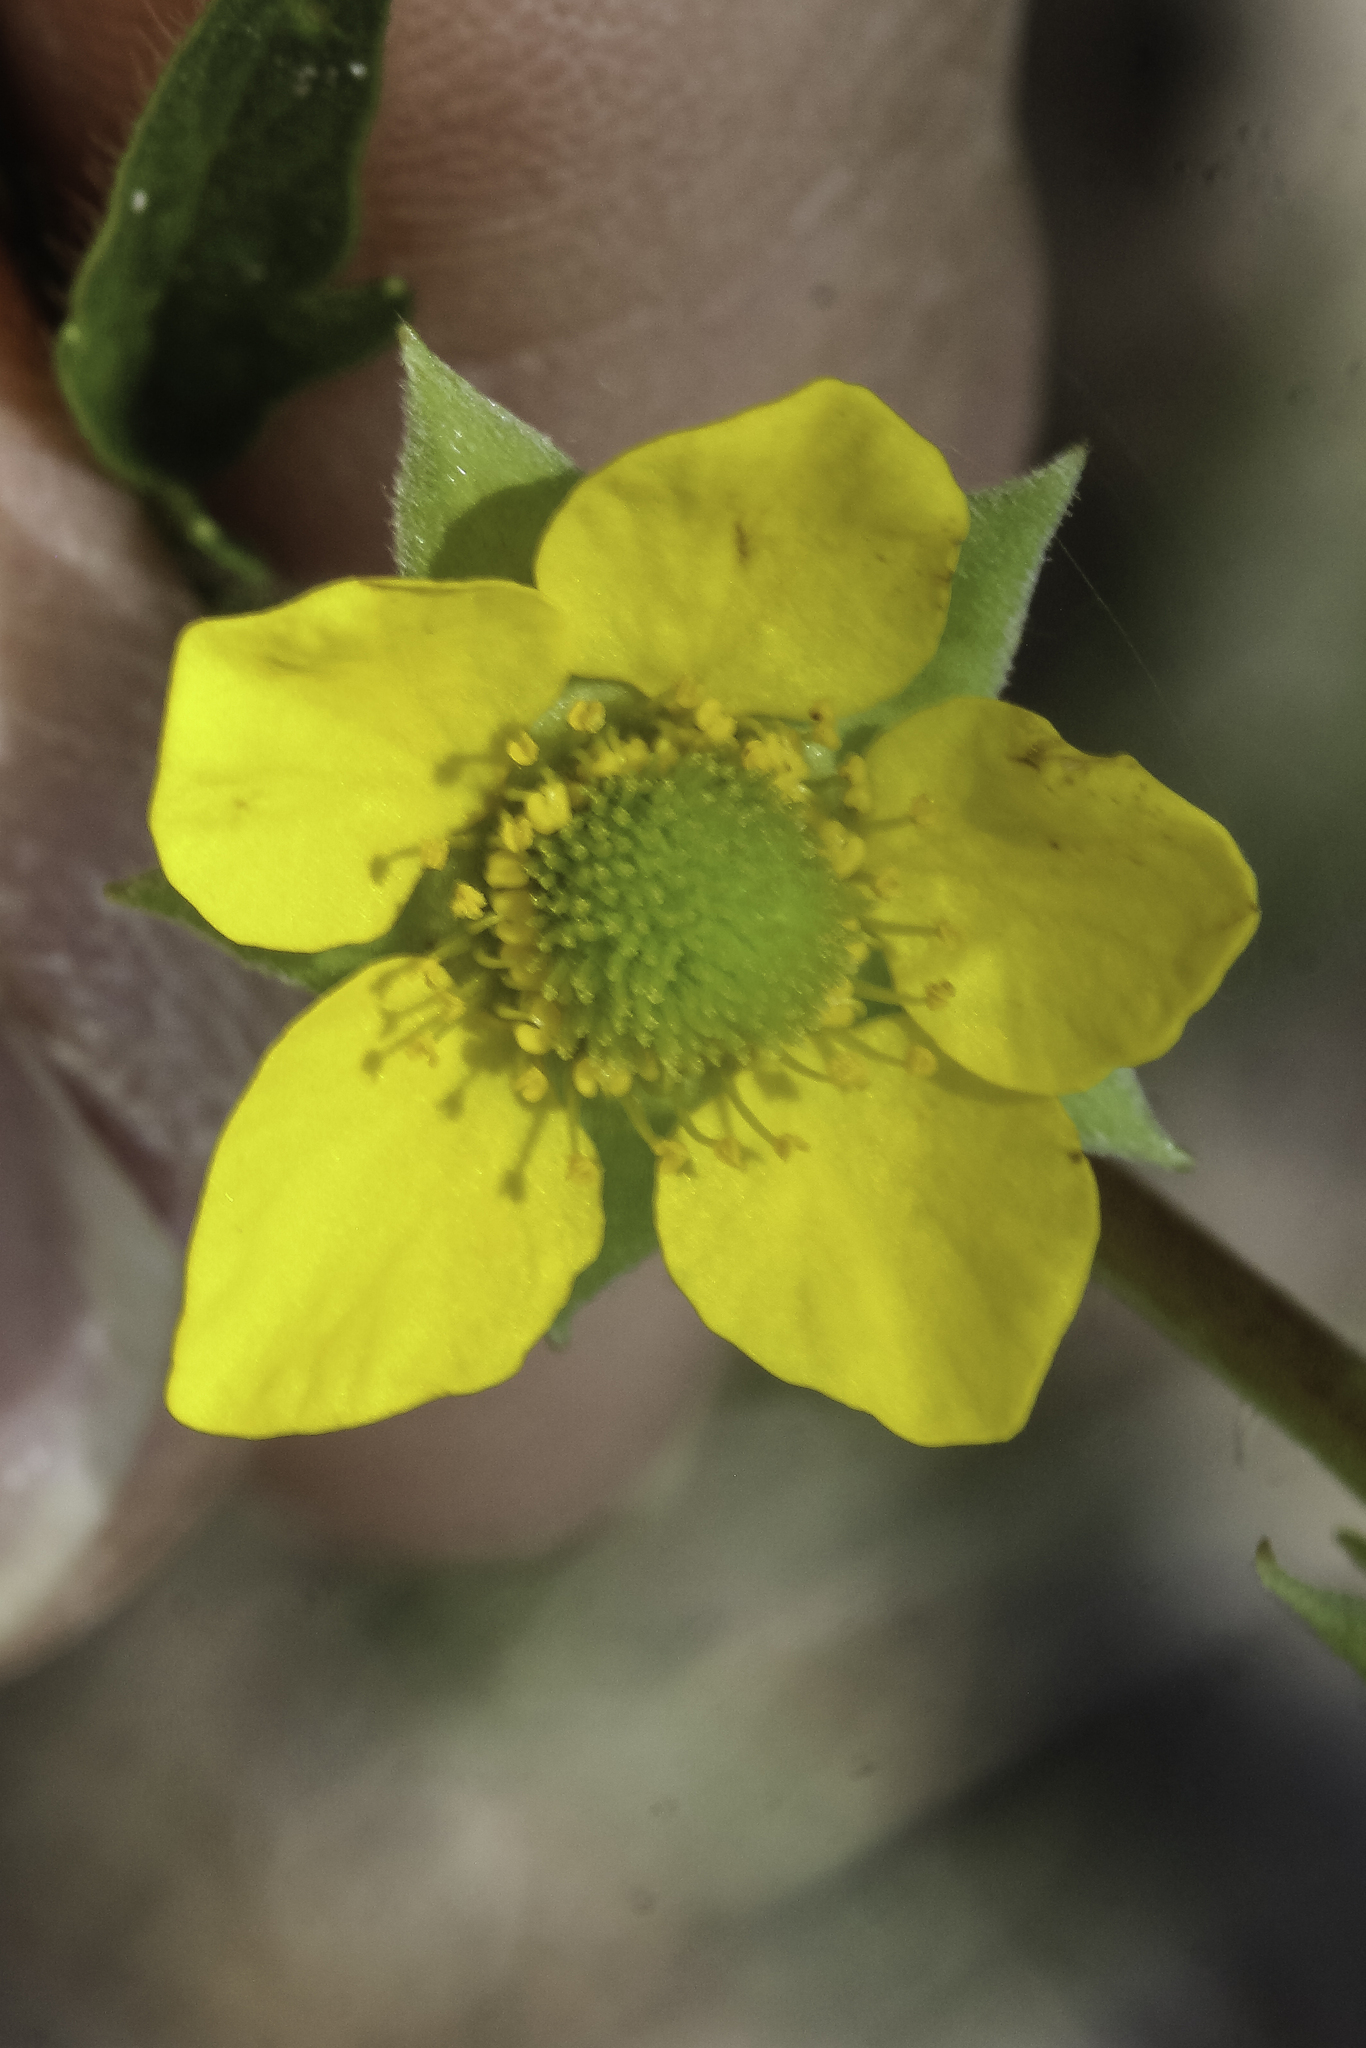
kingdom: Plantae
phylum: Tracheophyta
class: Magnoliopsida
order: Rosales
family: Rosaceae
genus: Geum
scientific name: Geum aleppicum
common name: Yellow avens
